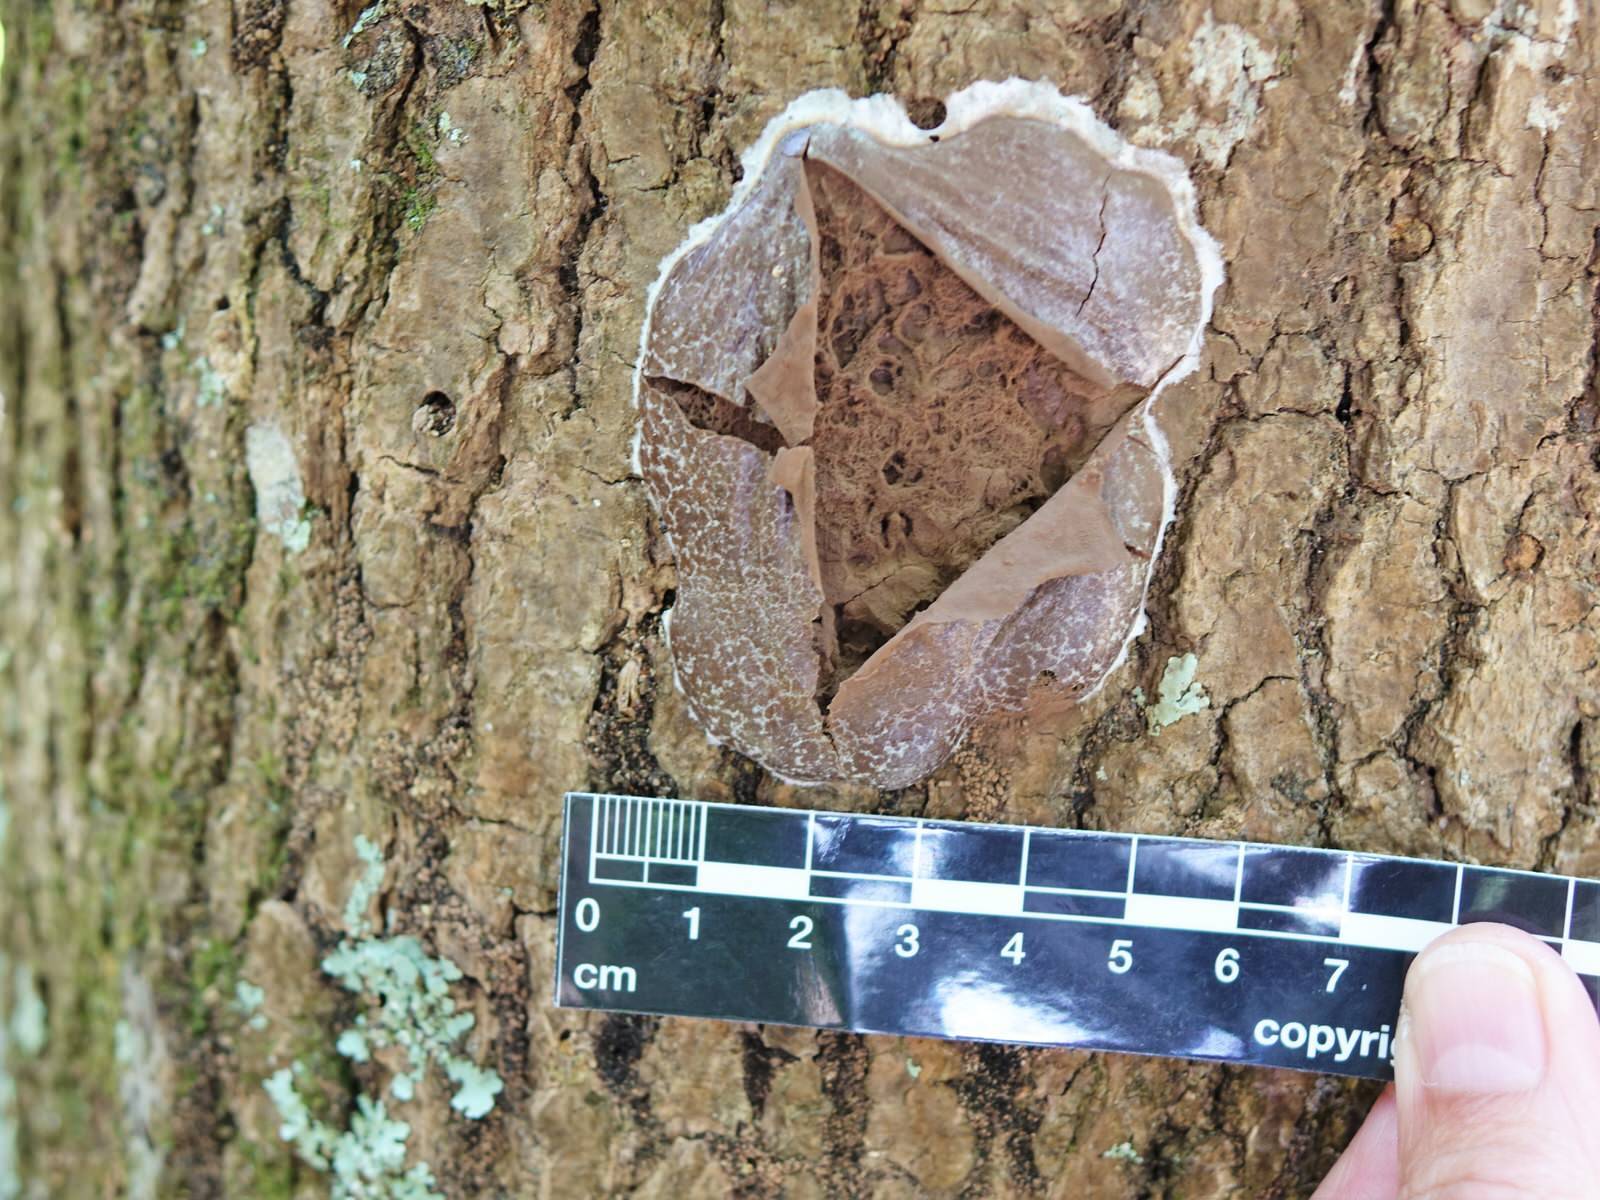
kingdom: Protozoa
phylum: Mycetozoa
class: Myxomycetes
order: Cribrariales
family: Tubiferaceae
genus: Reticularia
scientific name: Reticularia lycoperdon
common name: False puffball
